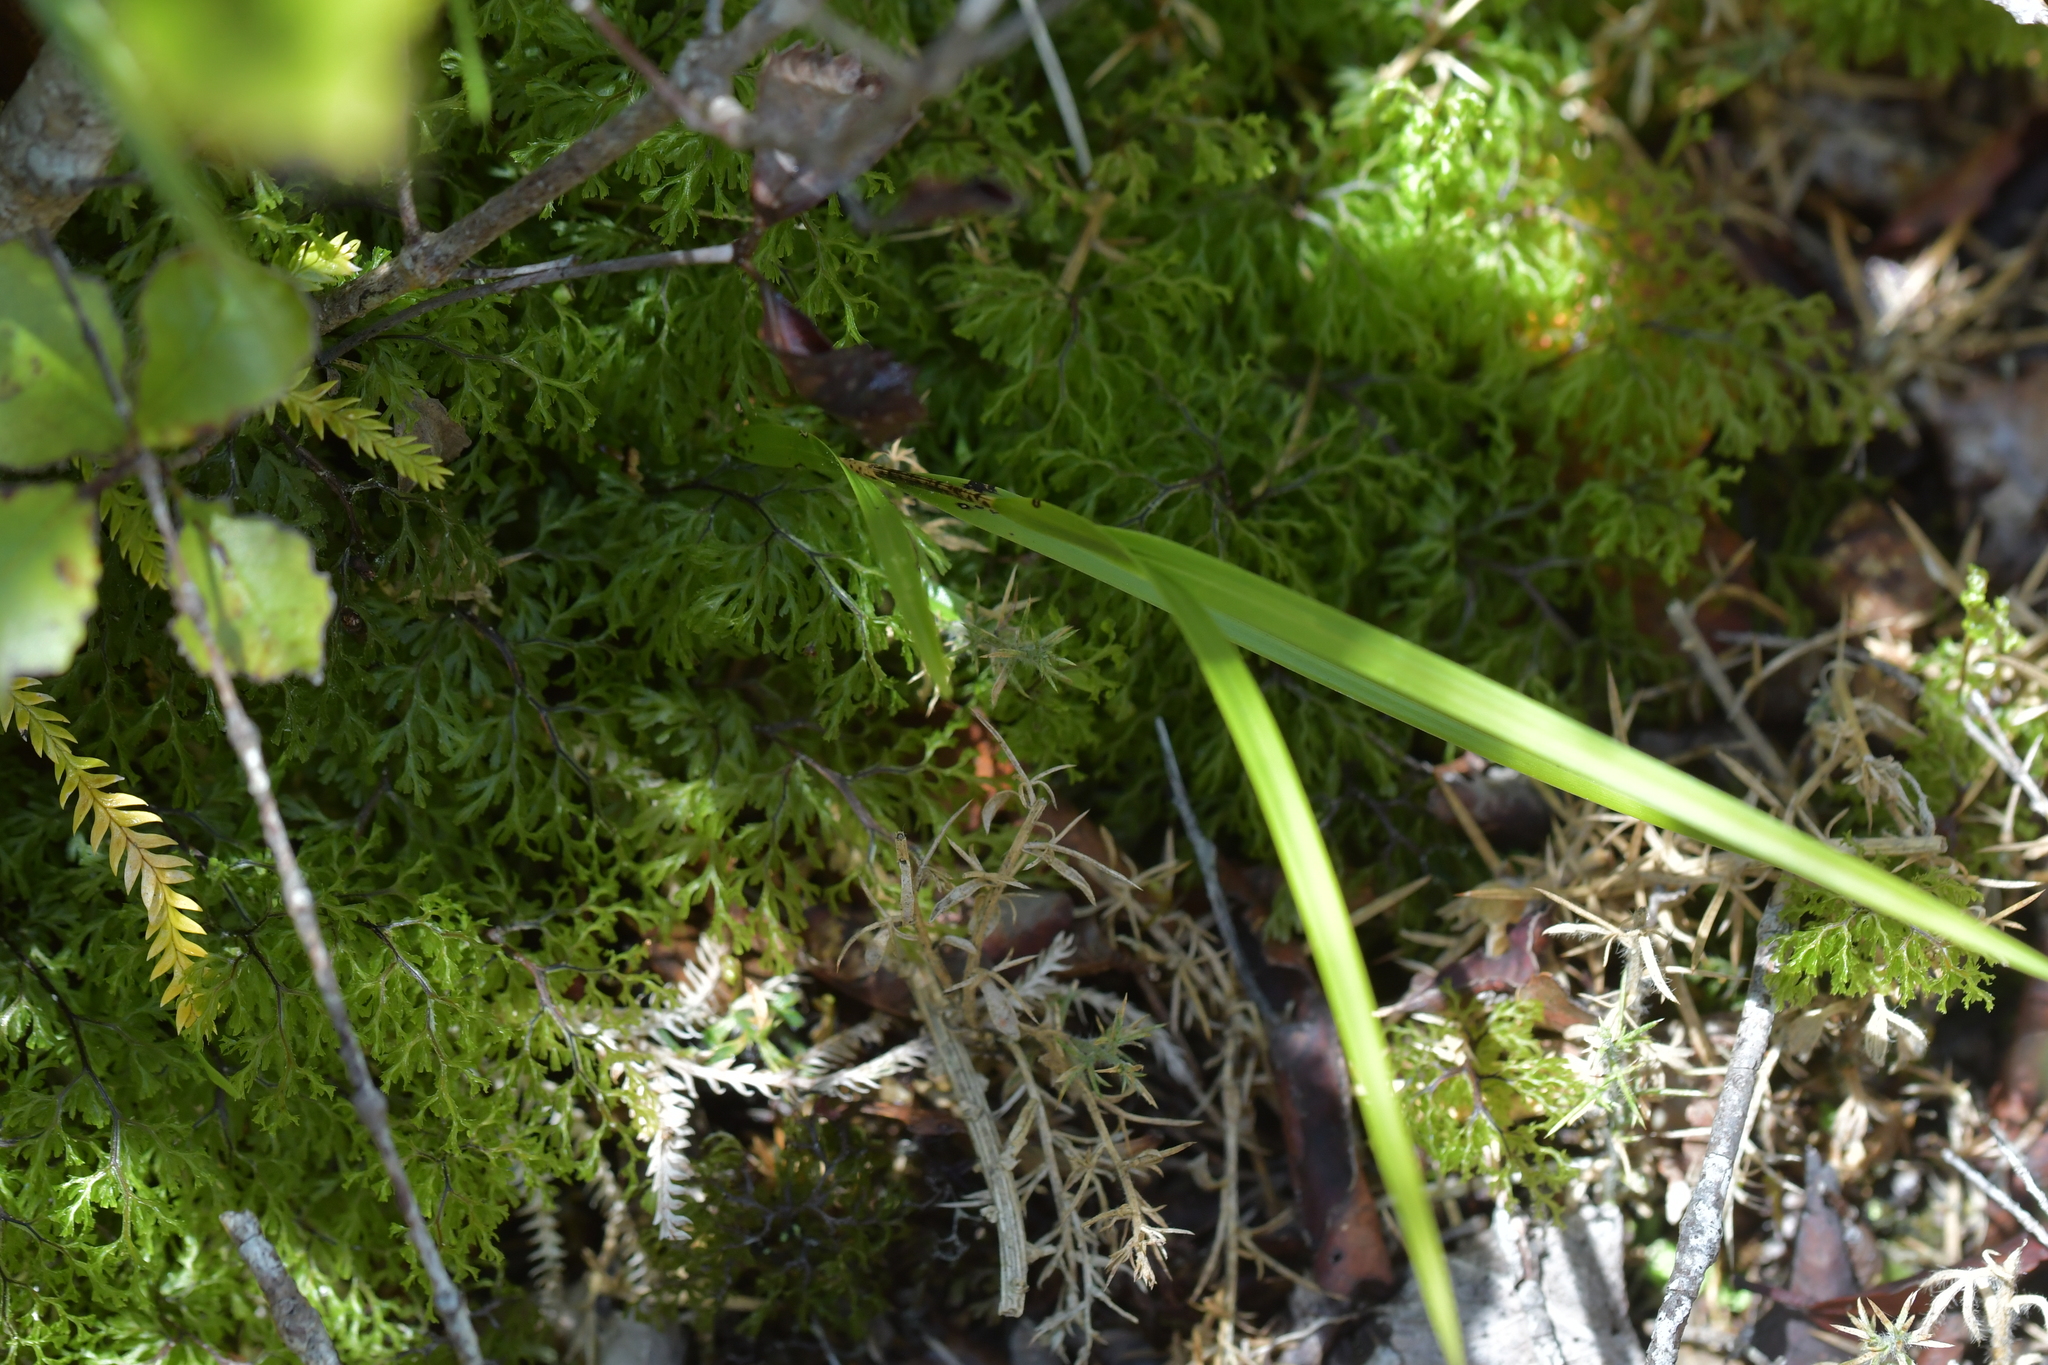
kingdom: Plantae
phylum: Tracheophyta
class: Liliopsida
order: Asparagales
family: Orchidaceae
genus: Earina
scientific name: Earina mucronata
